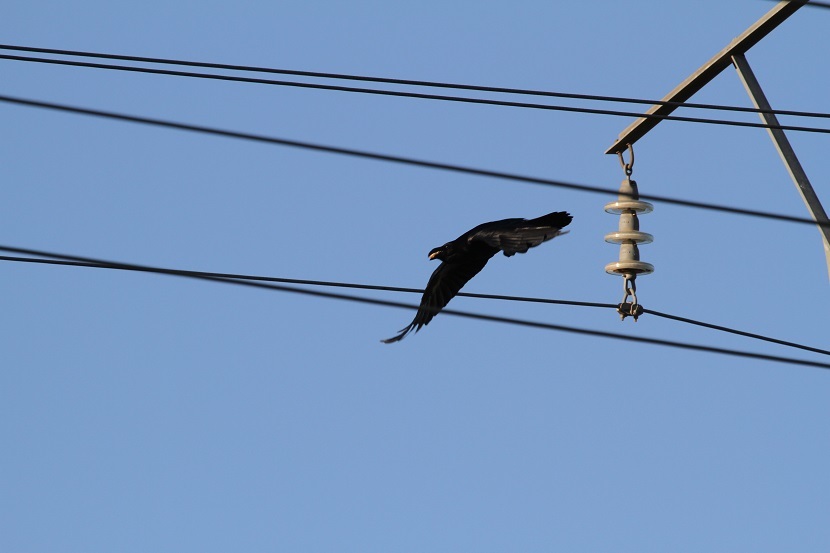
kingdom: Animalia
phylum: Chordata
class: Aves
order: Passeriformes
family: Corvidae
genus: Corvus
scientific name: Corvus corax
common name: Common raven
